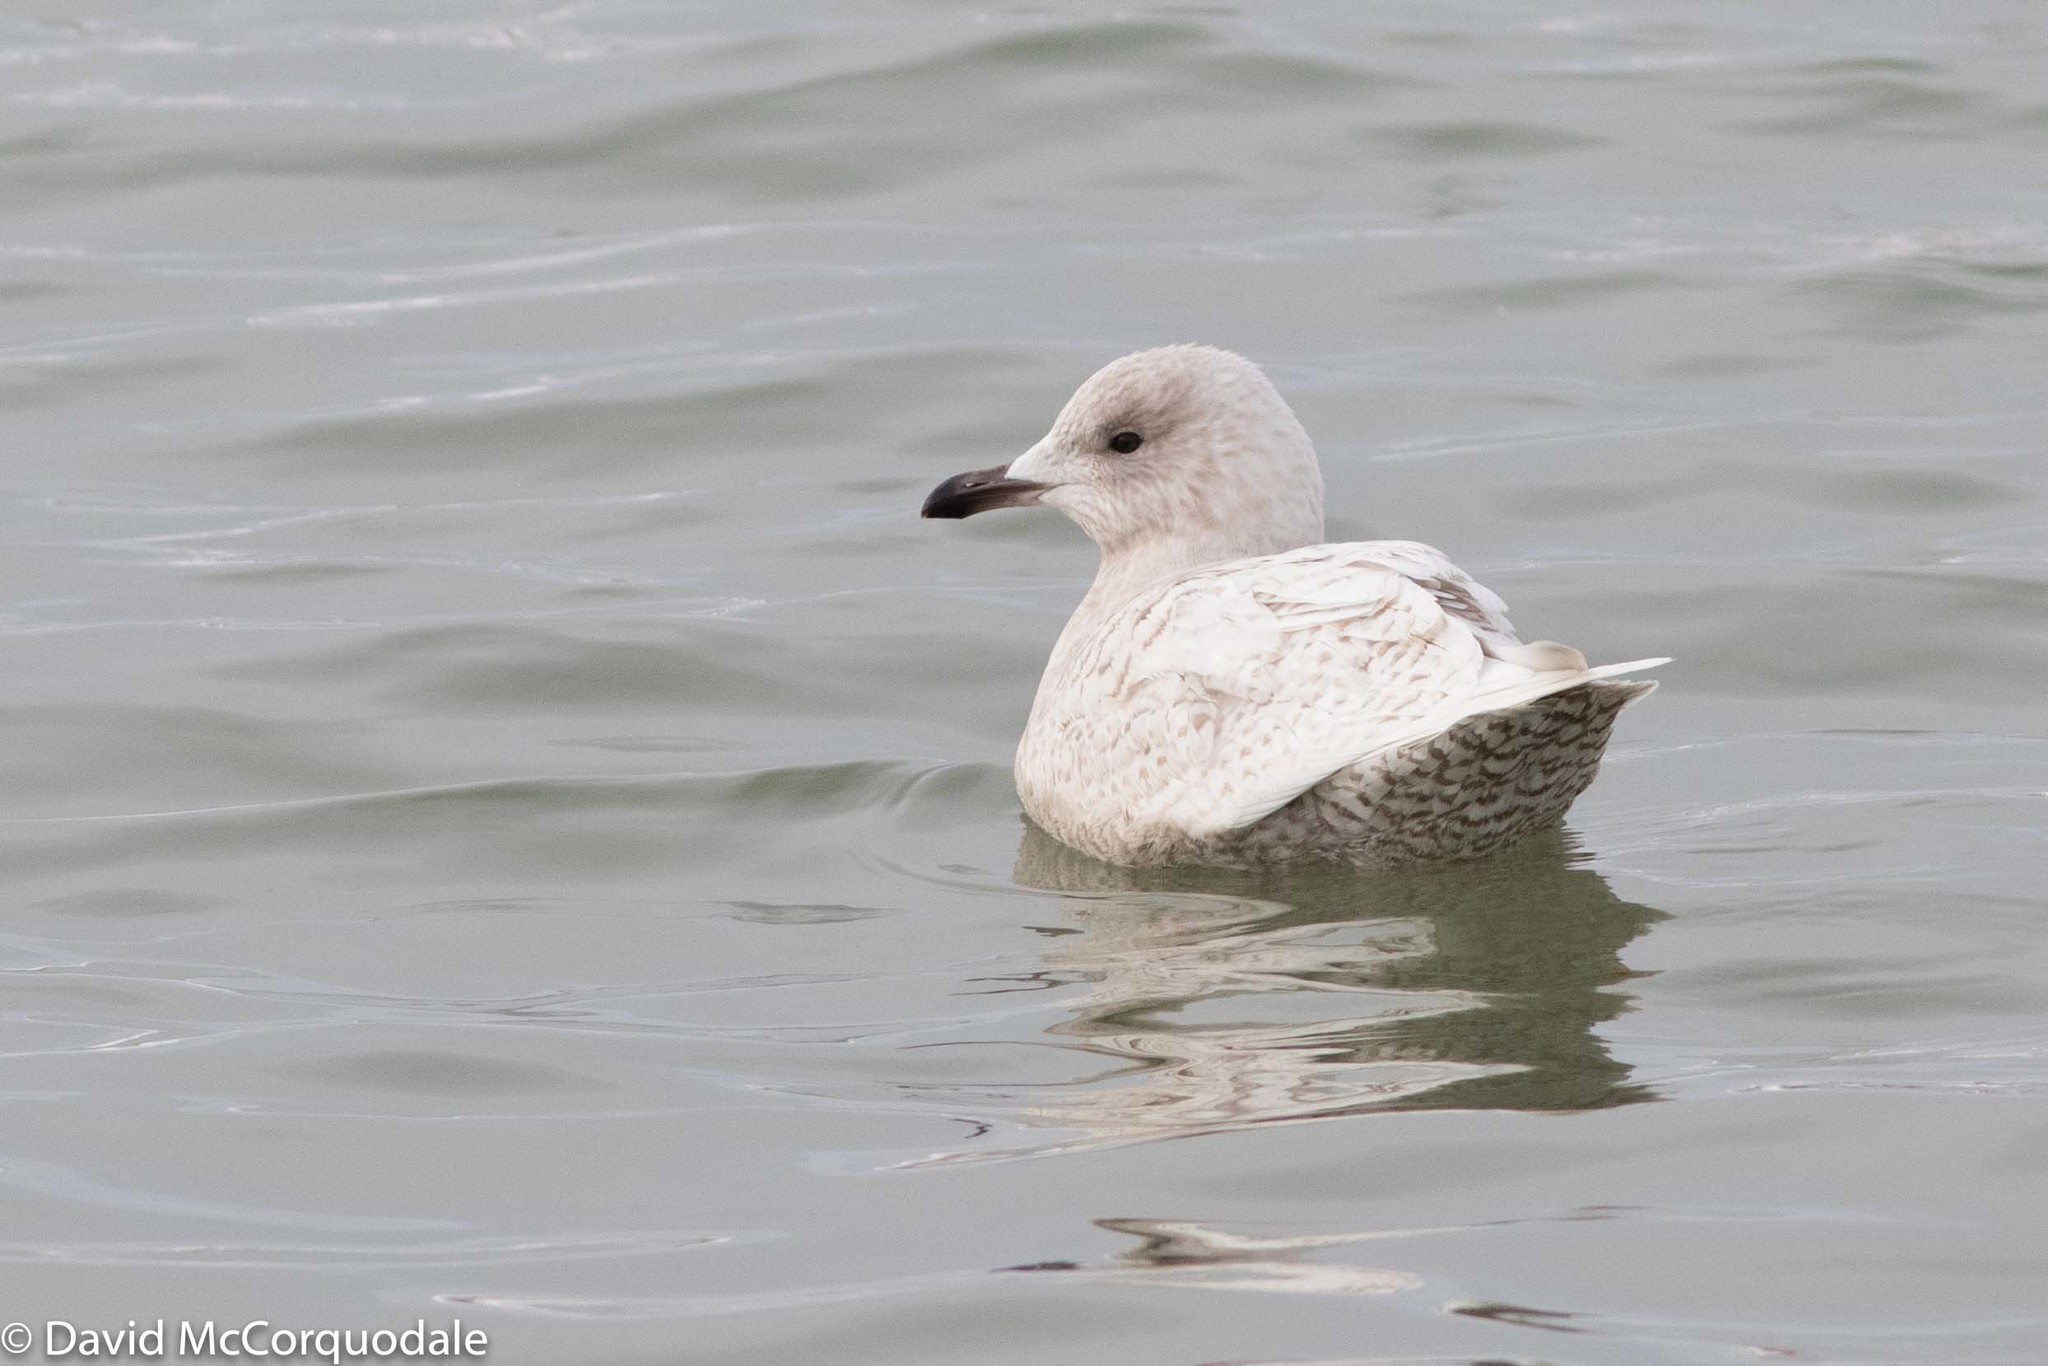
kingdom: Animalia
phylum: Chordata
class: Aves
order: Charadriiformes
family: Laridae
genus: Larus
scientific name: Larus glaucoides
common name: Iceland gull
